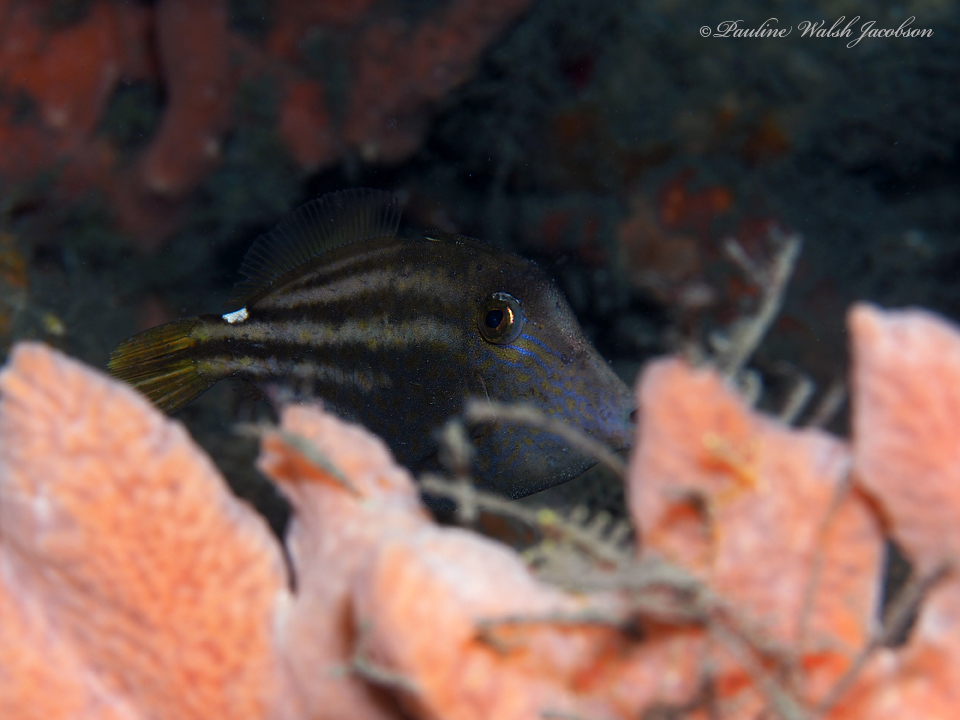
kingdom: Animalia
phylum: Chordata
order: Tetraodontiformes
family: Monacanthidae
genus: Cantherhines
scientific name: Cantherhines pullus
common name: Orangespotted filefish
